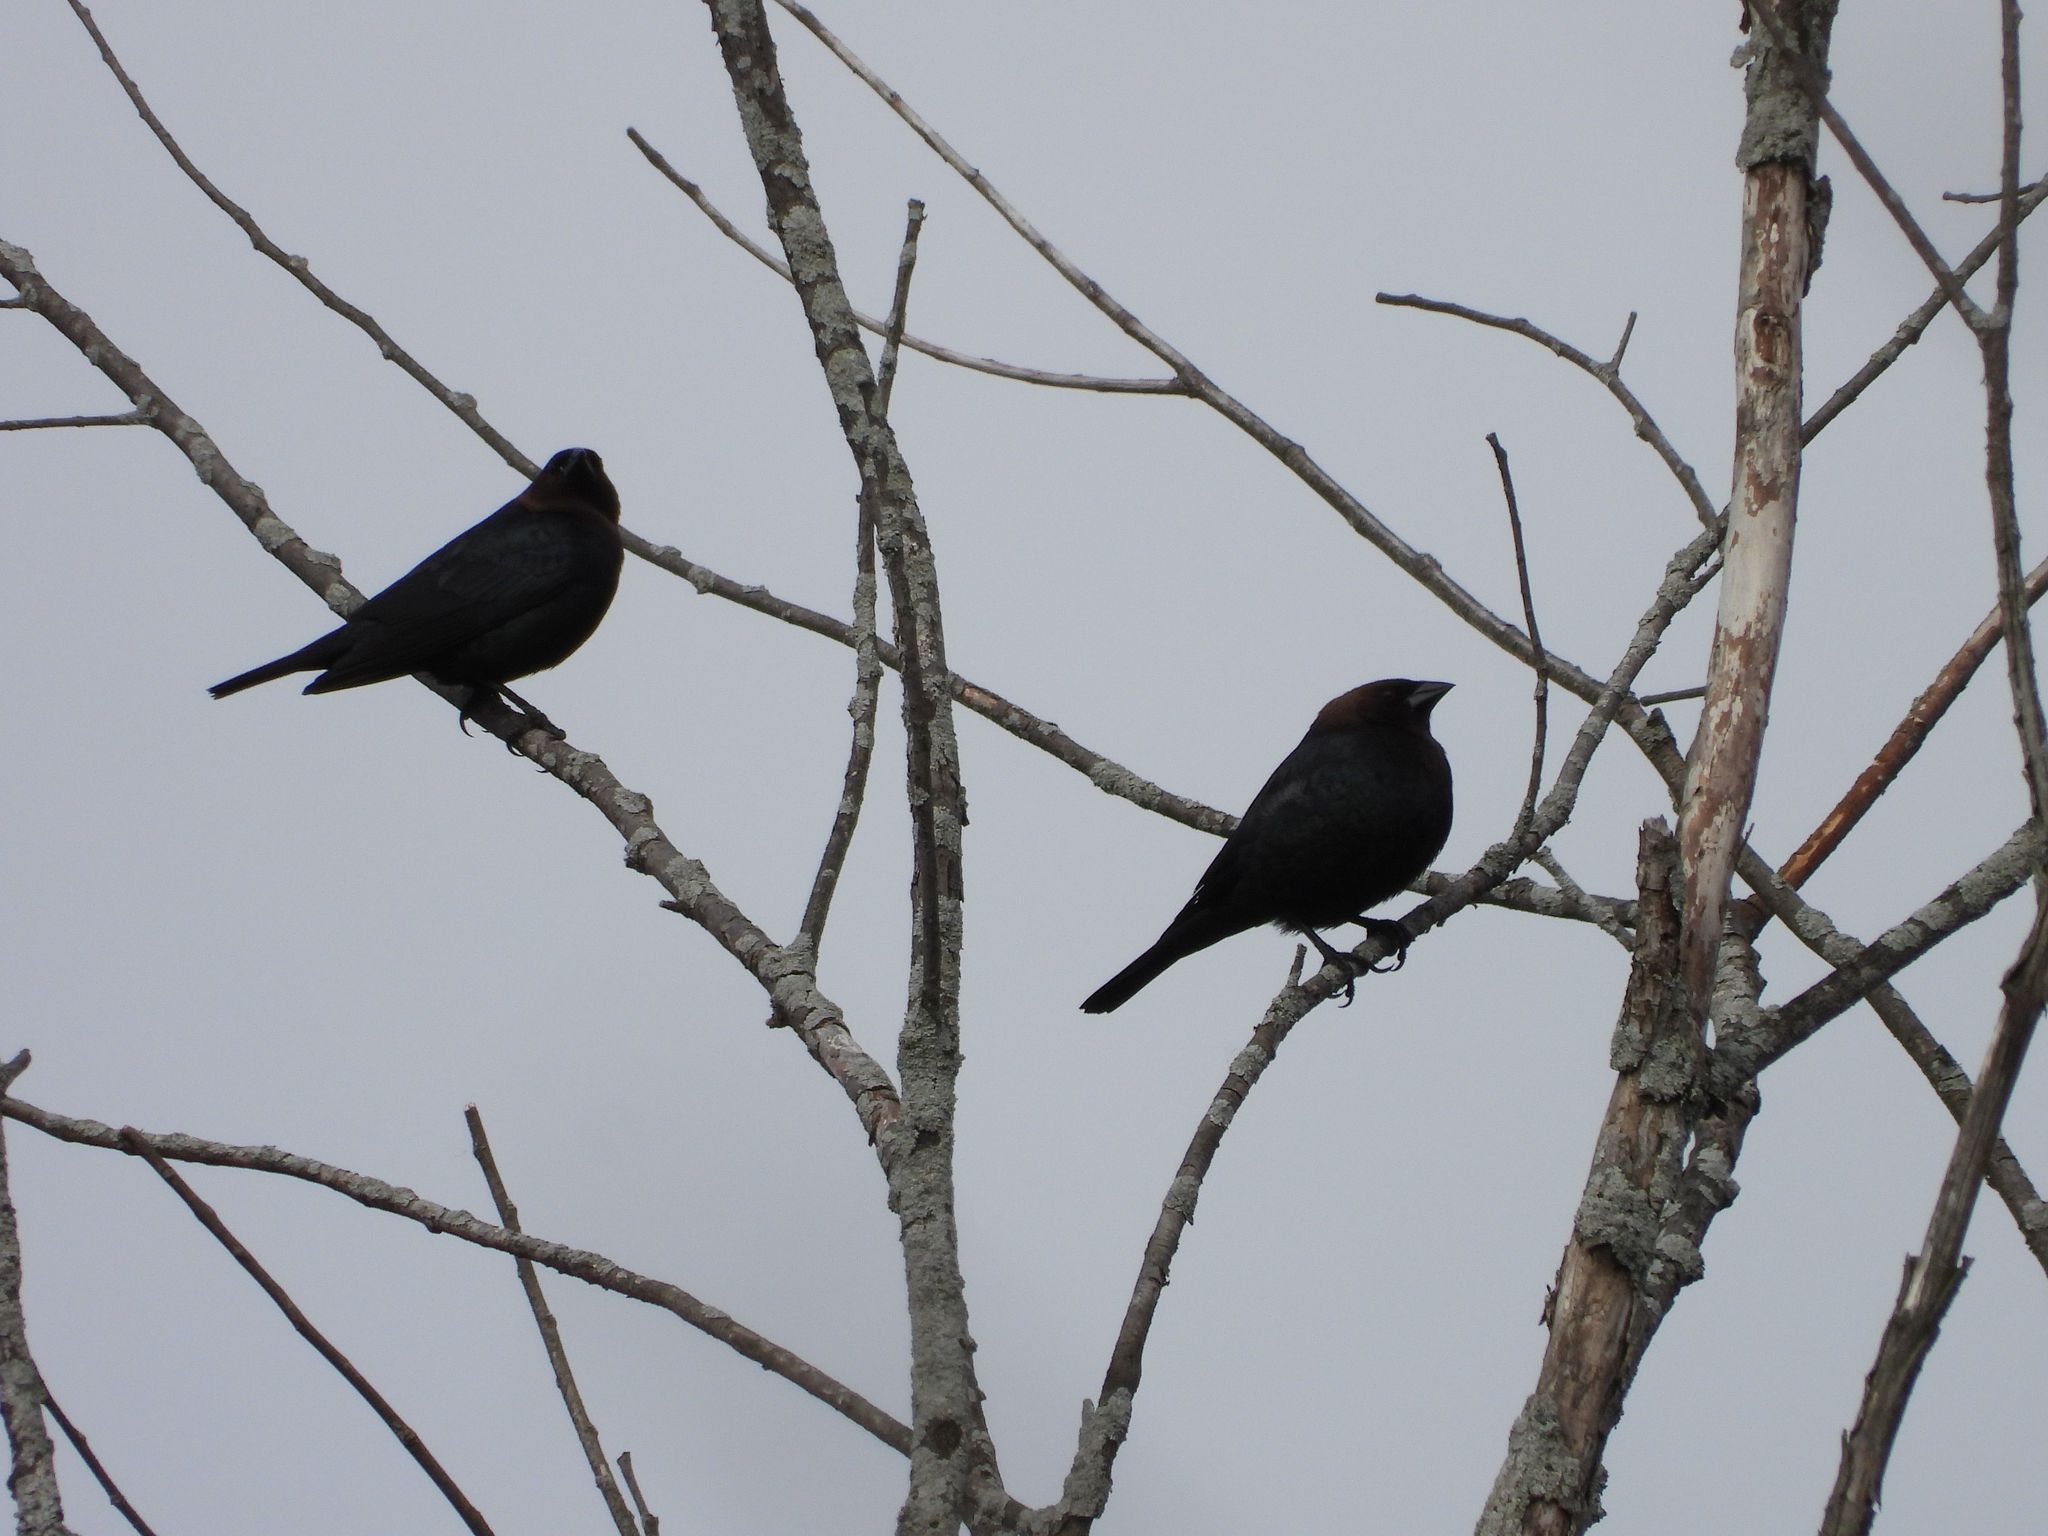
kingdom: Animalia
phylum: Chordata
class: Aves
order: Passeriformes
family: Icteridae
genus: Molothrus
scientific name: Molothrus ater
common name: Brown-headed cowbird
